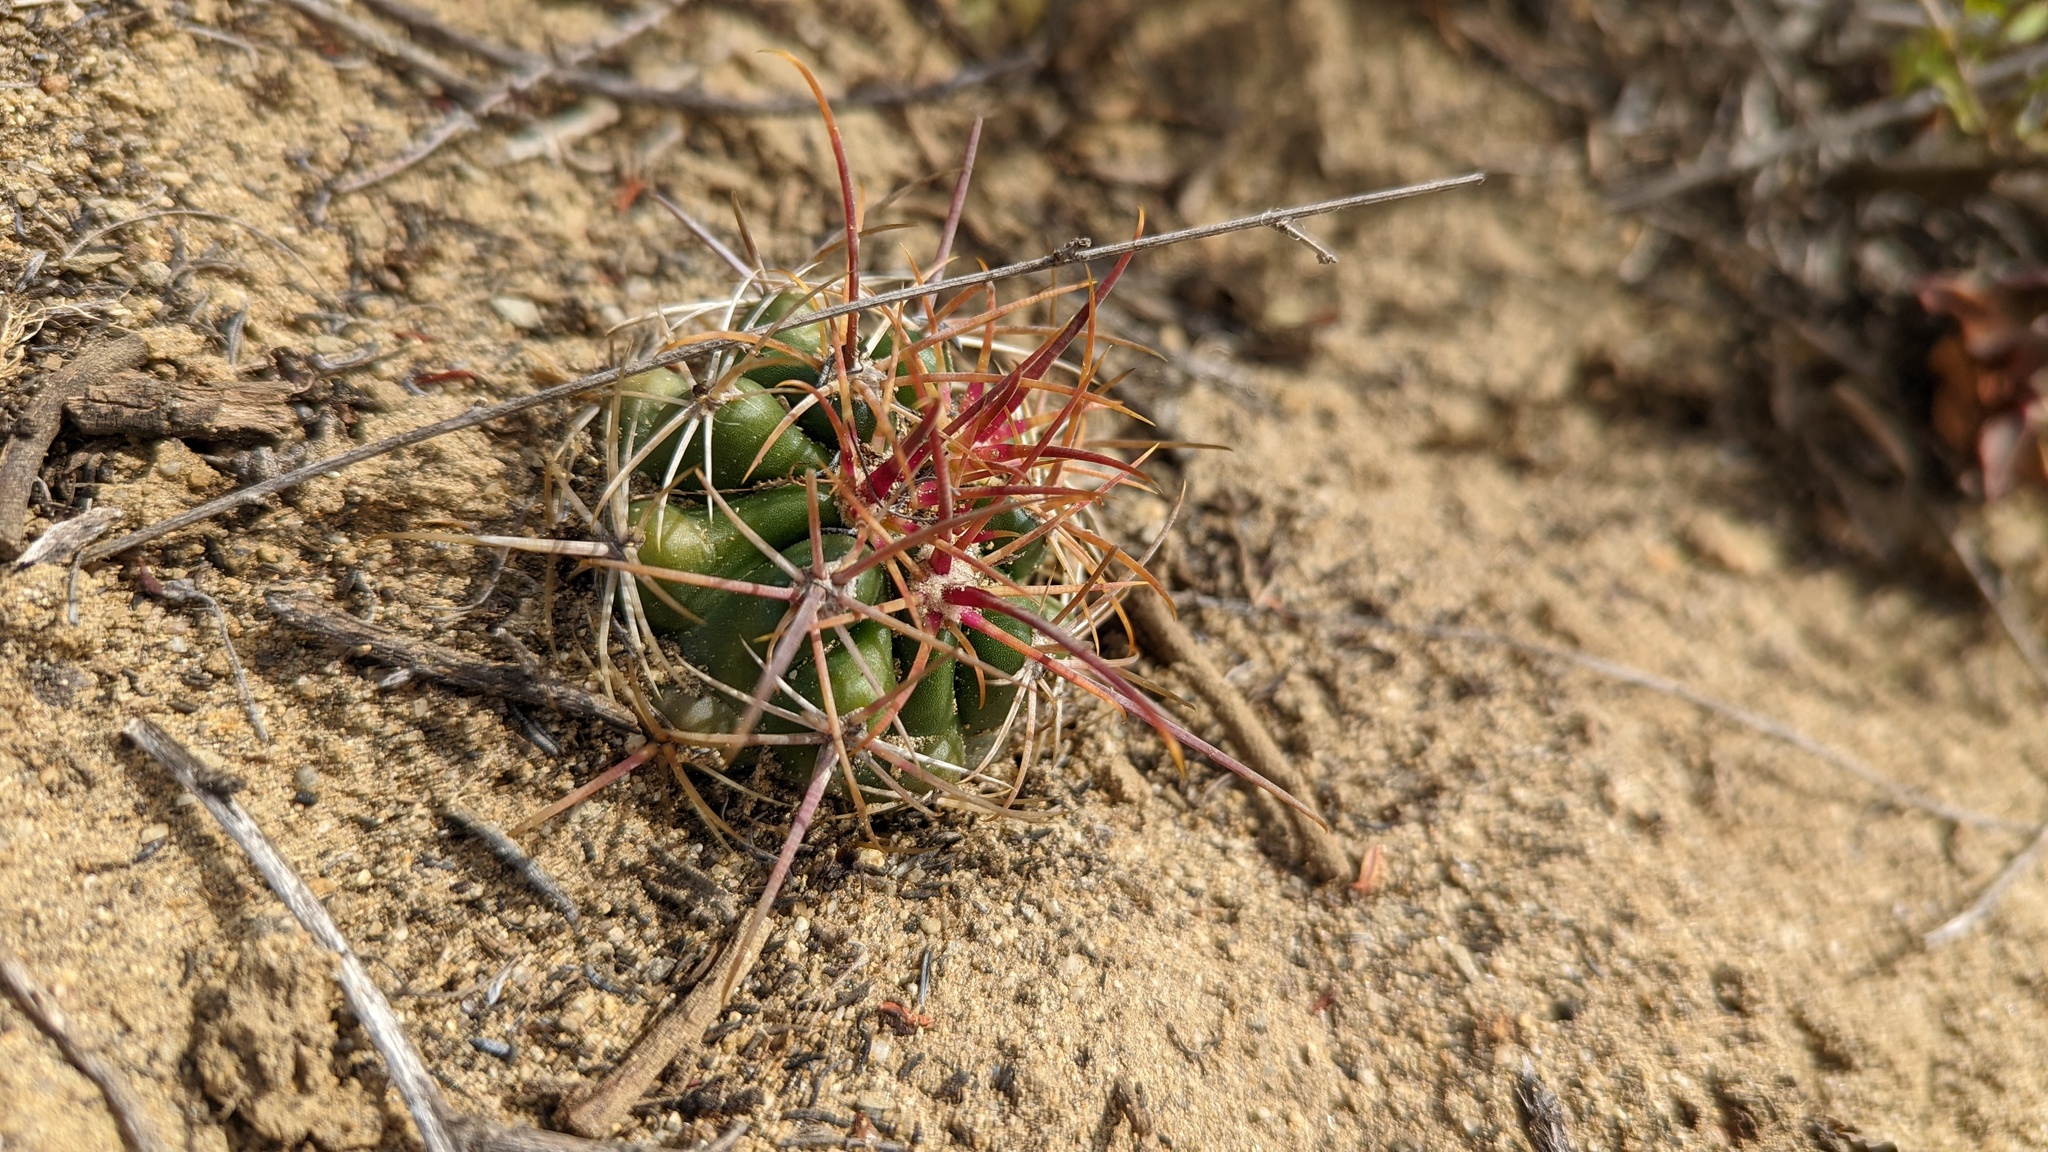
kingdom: Plantae
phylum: Tracheophyta
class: Magnoliopsida
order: Caryophyllales
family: Cactaceae
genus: Ferocactus
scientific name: Ferocactus viridescens
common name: San diego barrel cactus
